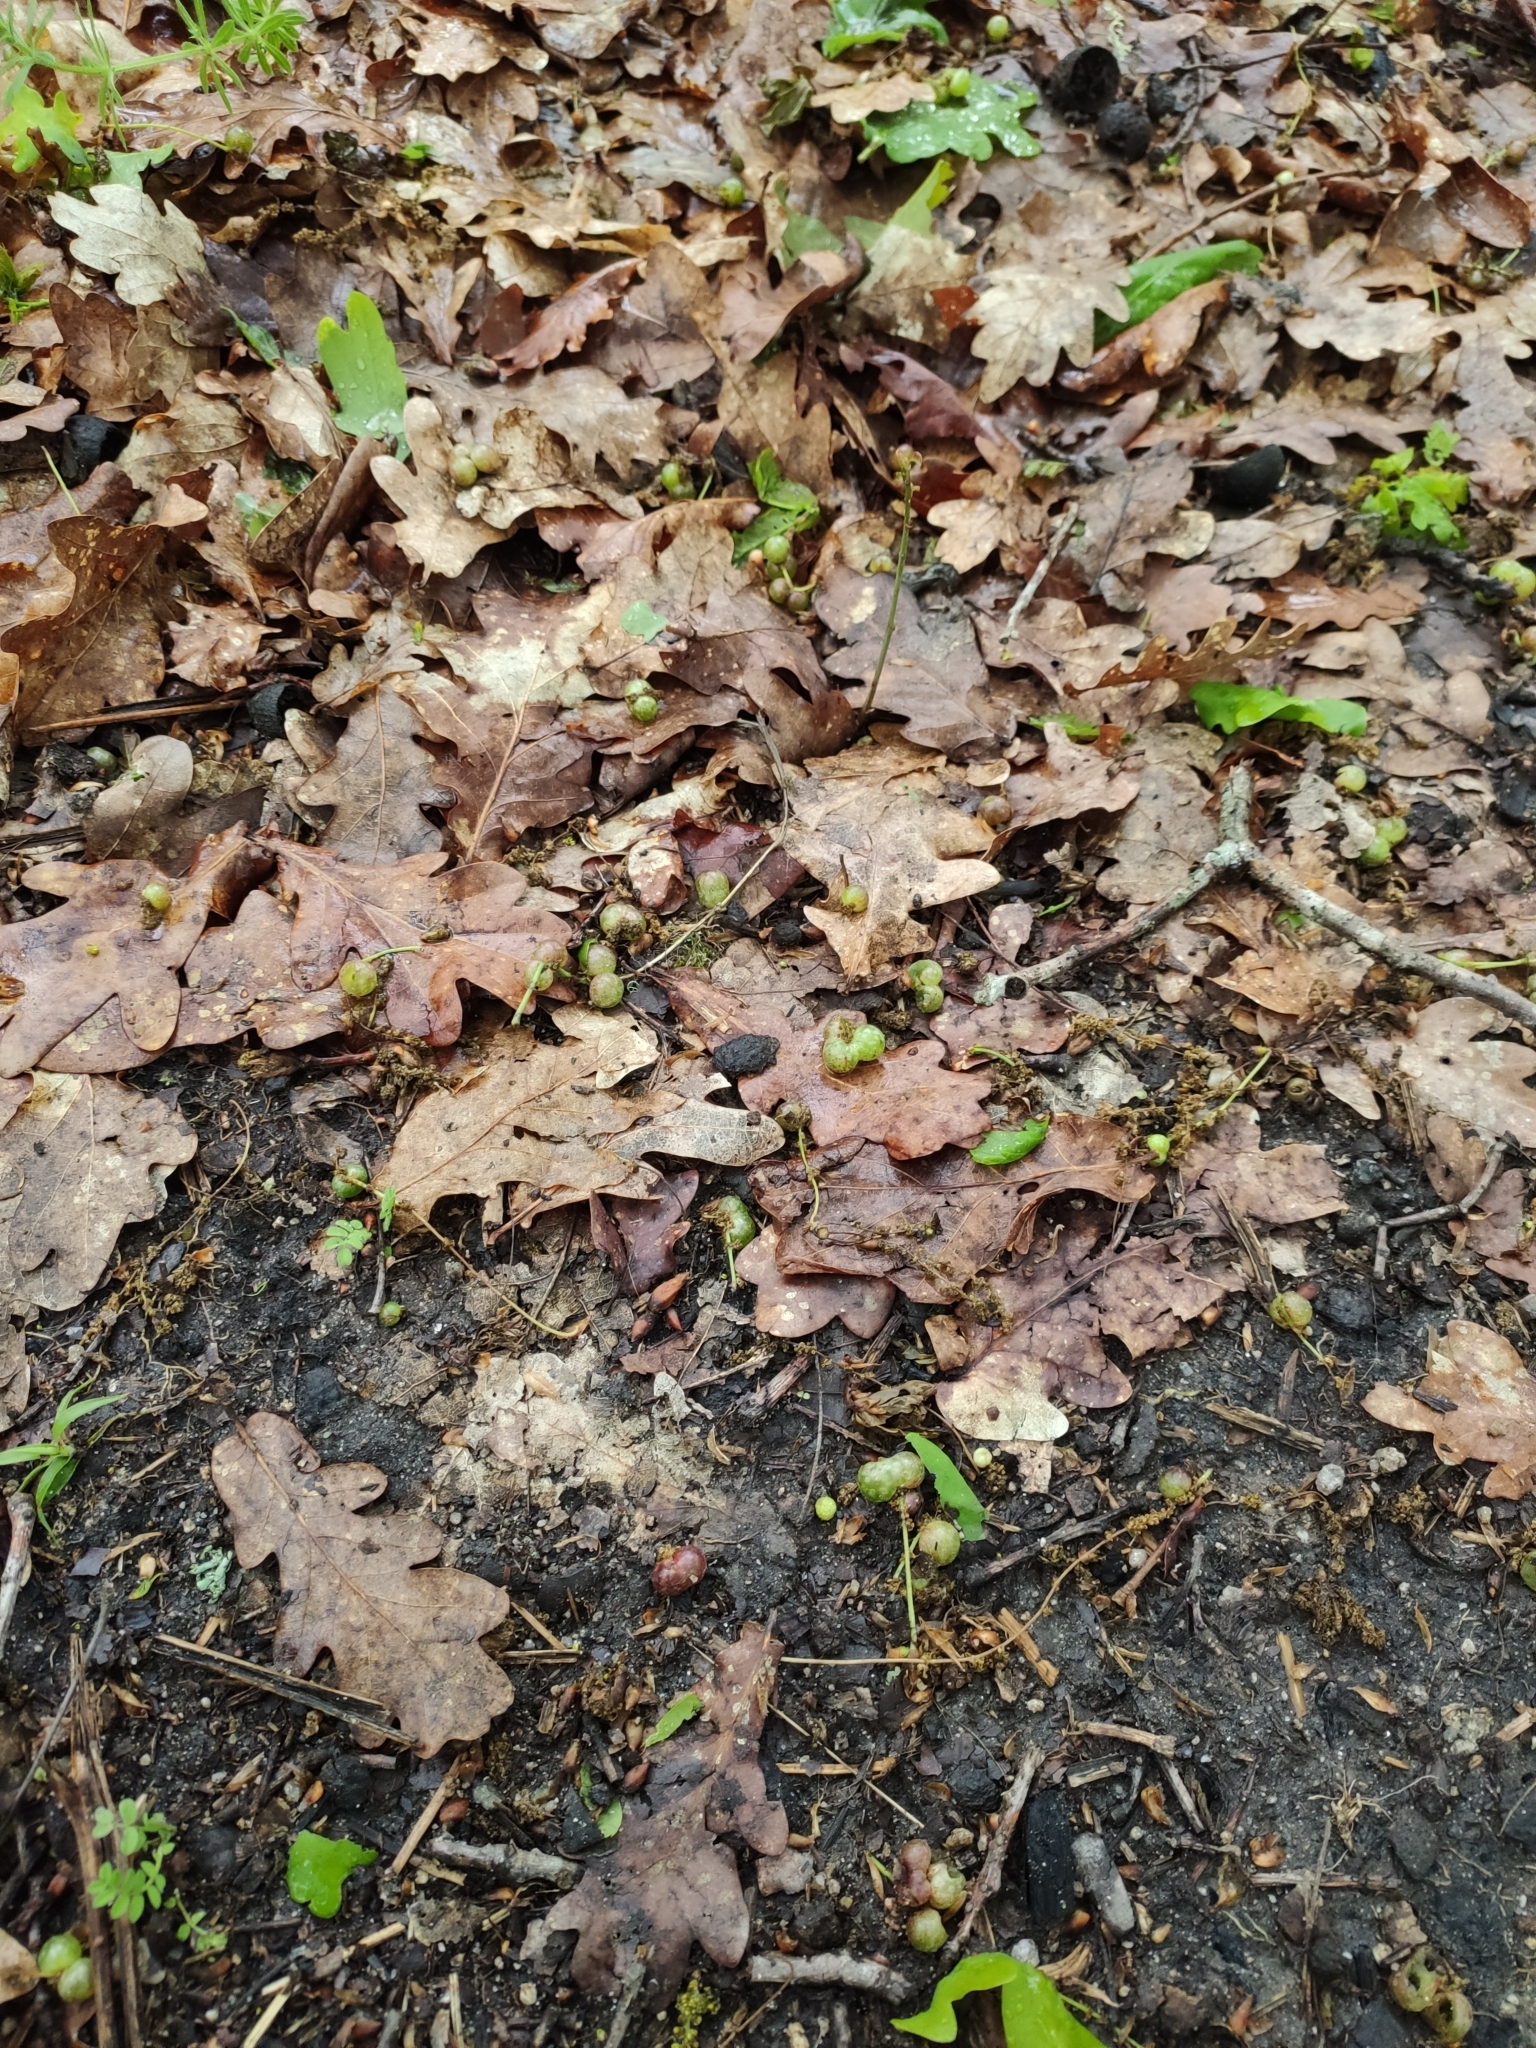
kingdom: Animalia
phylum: Arthropoda
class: Insecta
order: Hymenoptera
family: Cynipidae
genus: Neuroterus
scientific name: Neuroterus quercusbaccarum
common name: Common spangle gall
